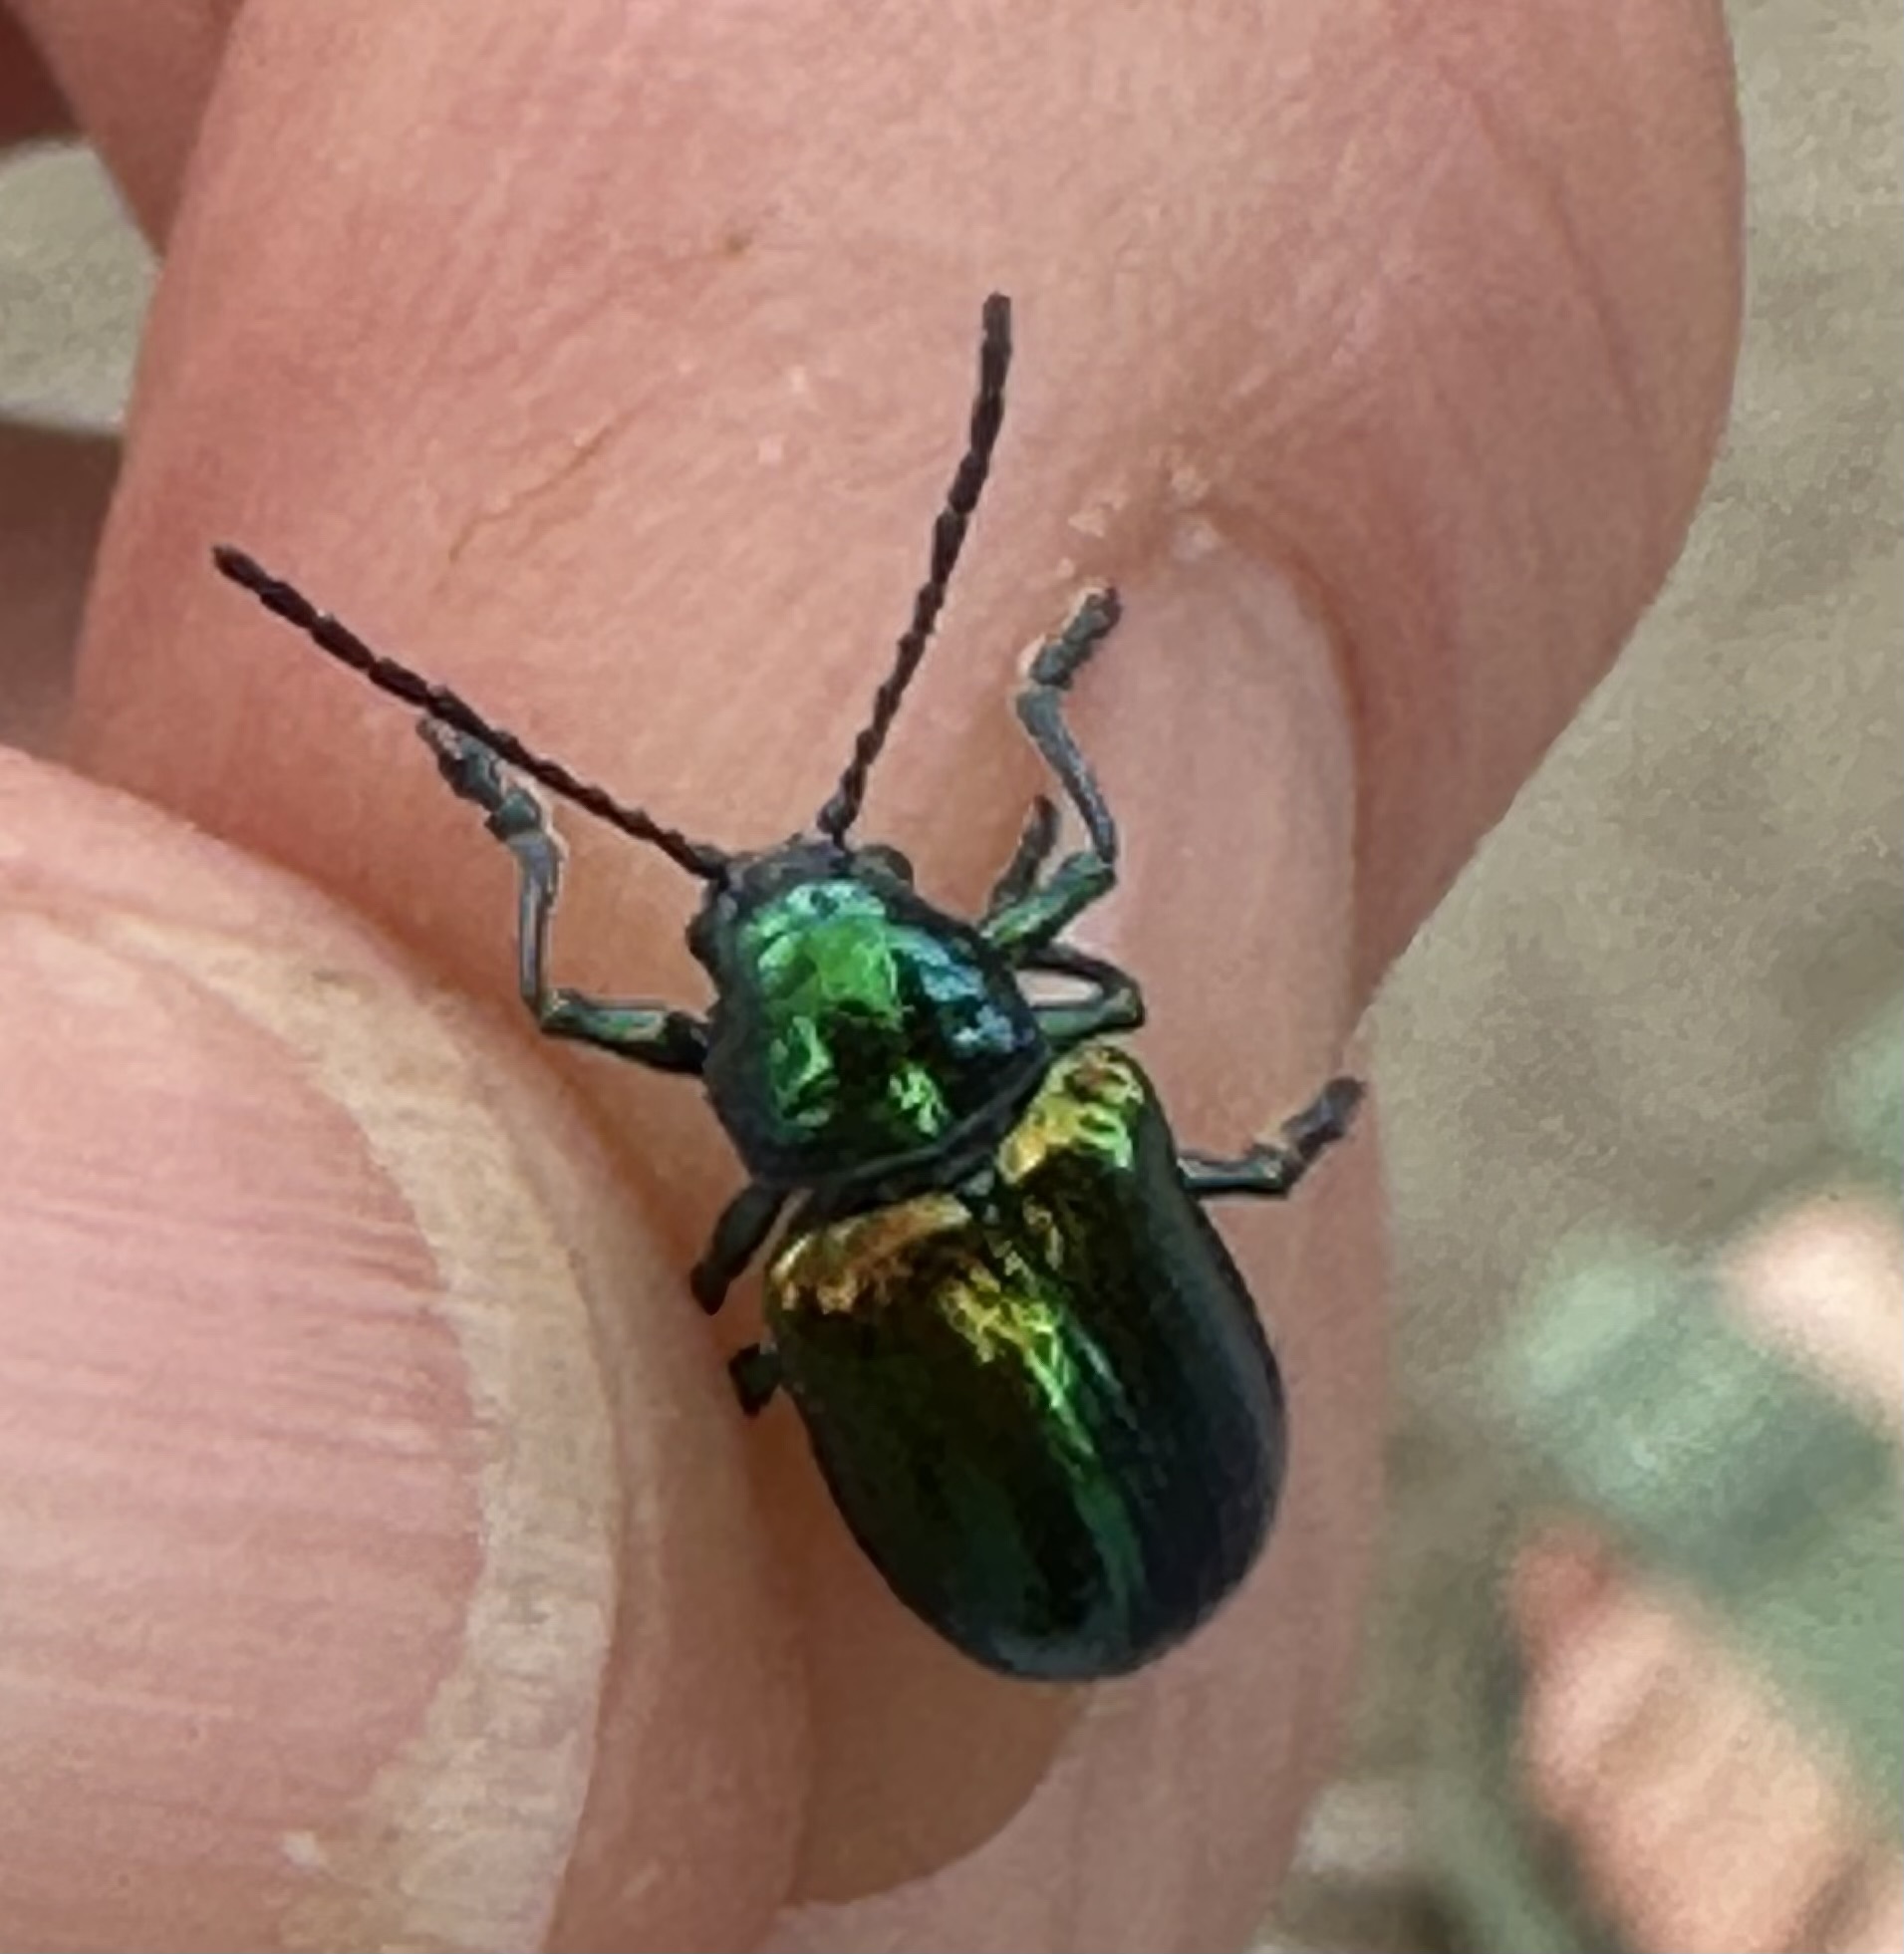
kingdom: Animalia
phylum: Arthropoda
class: Insecta
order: Coleoptera
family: Chrysomelidae
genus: Chrysochus
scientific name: Chrysochus auratus
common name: Dogbane leaf beetle
